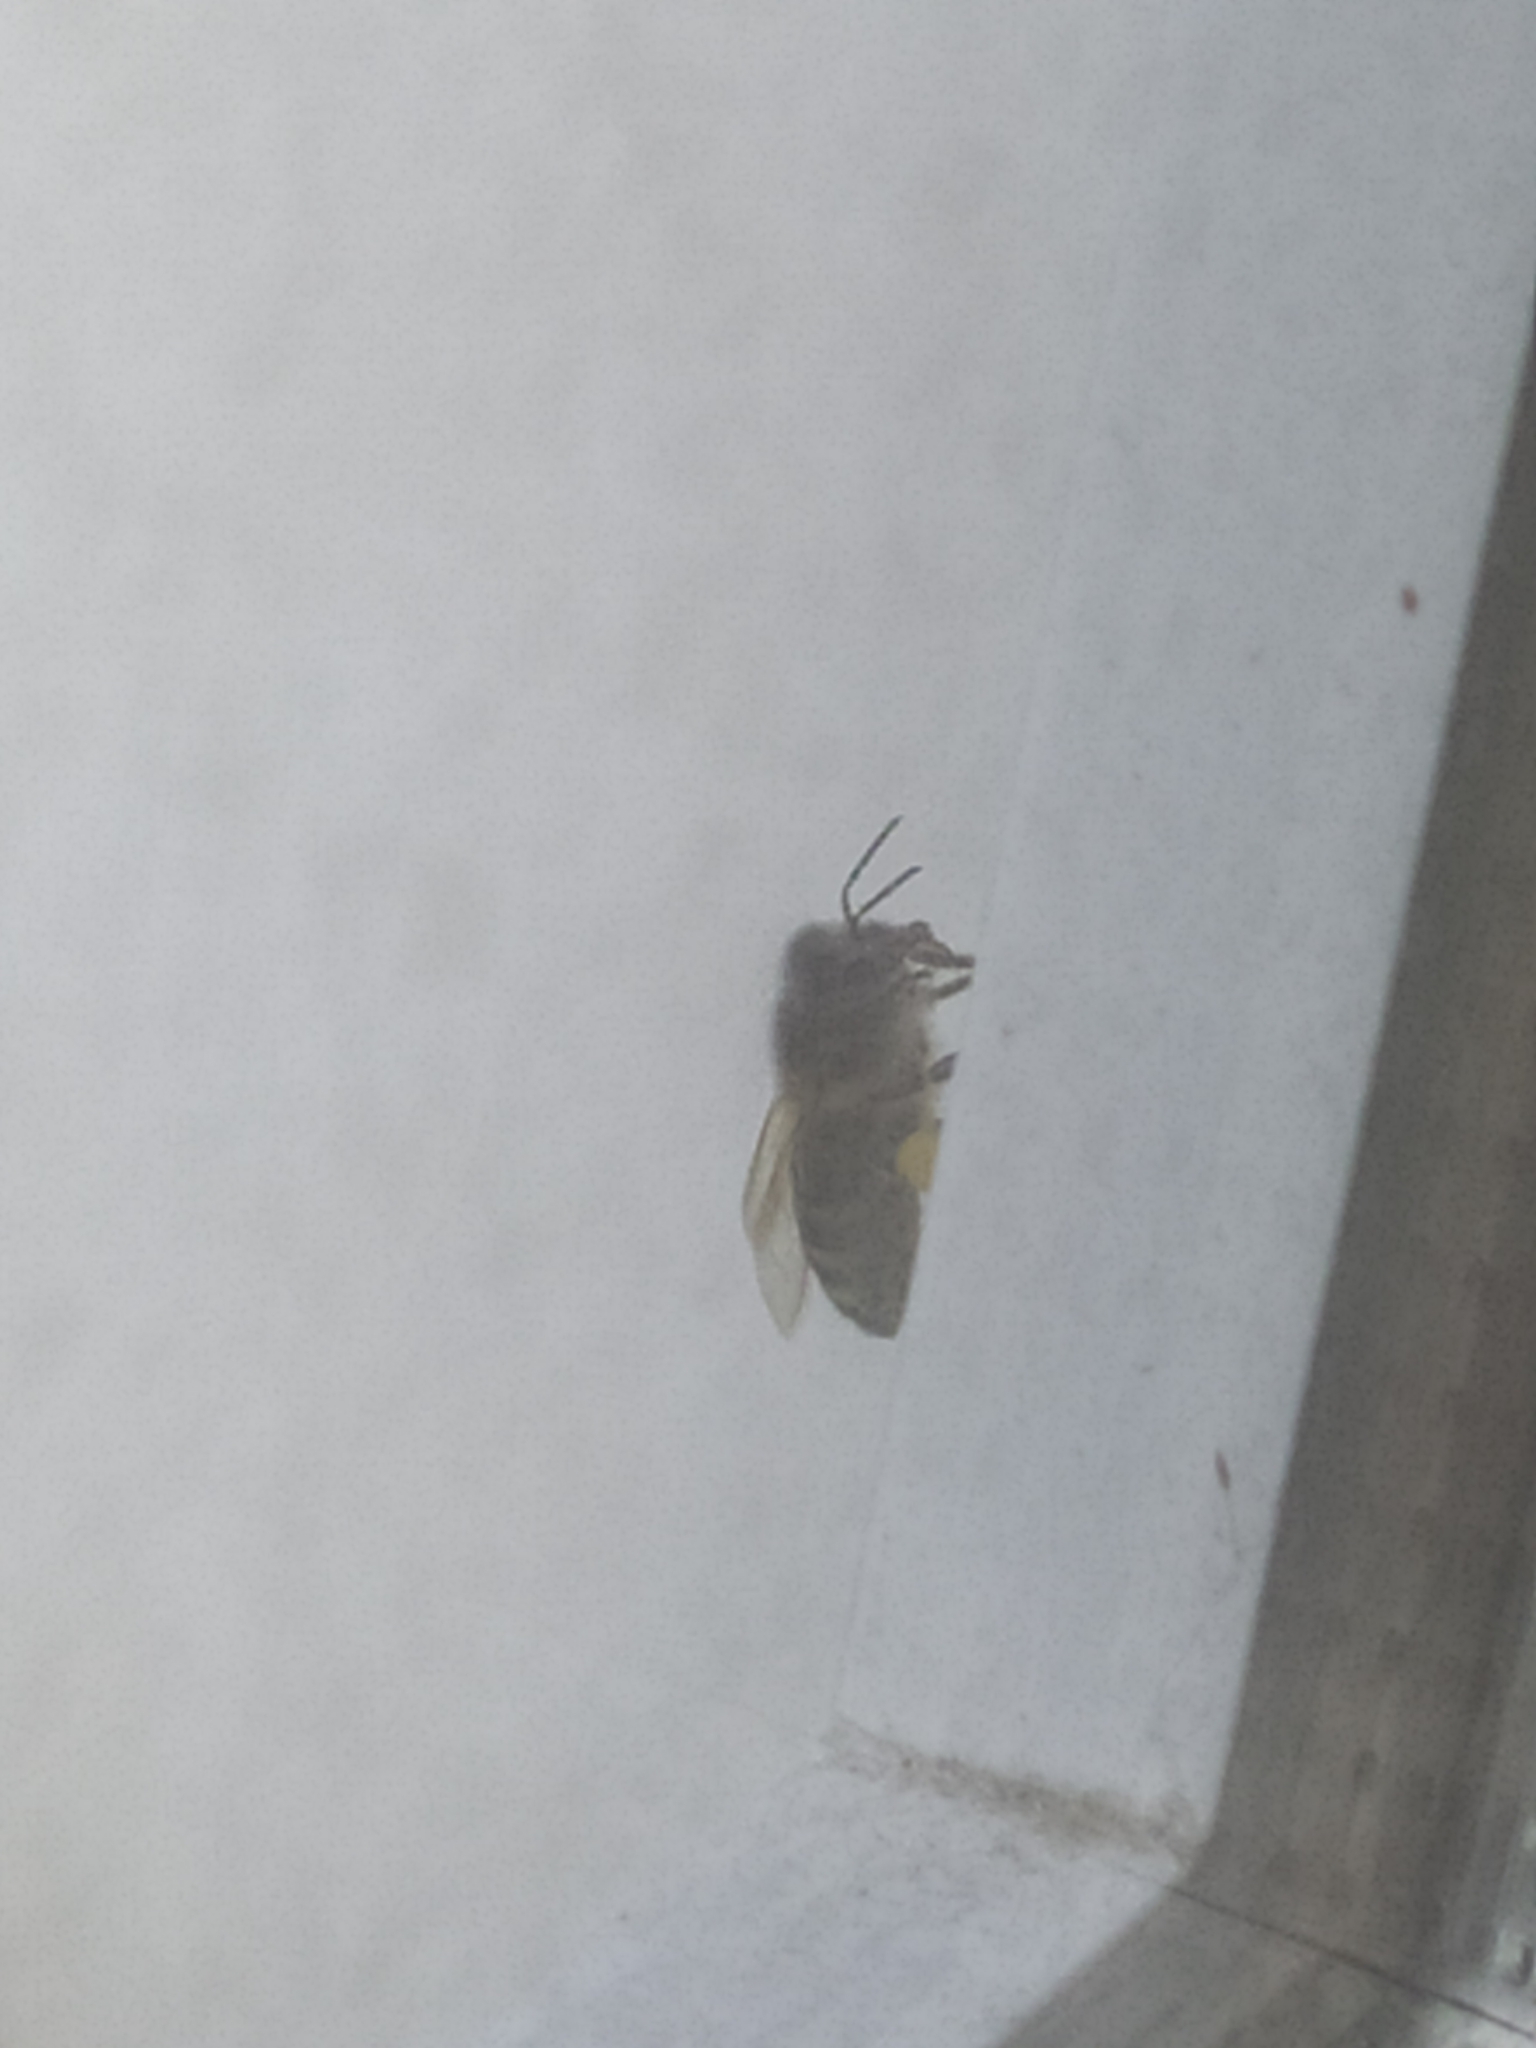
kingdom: Animalia
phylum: Arthropoda
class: Insecta
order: Hymenoptera
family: Apidae
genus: Apis
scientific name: Apis mellifera
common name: Honey bee
